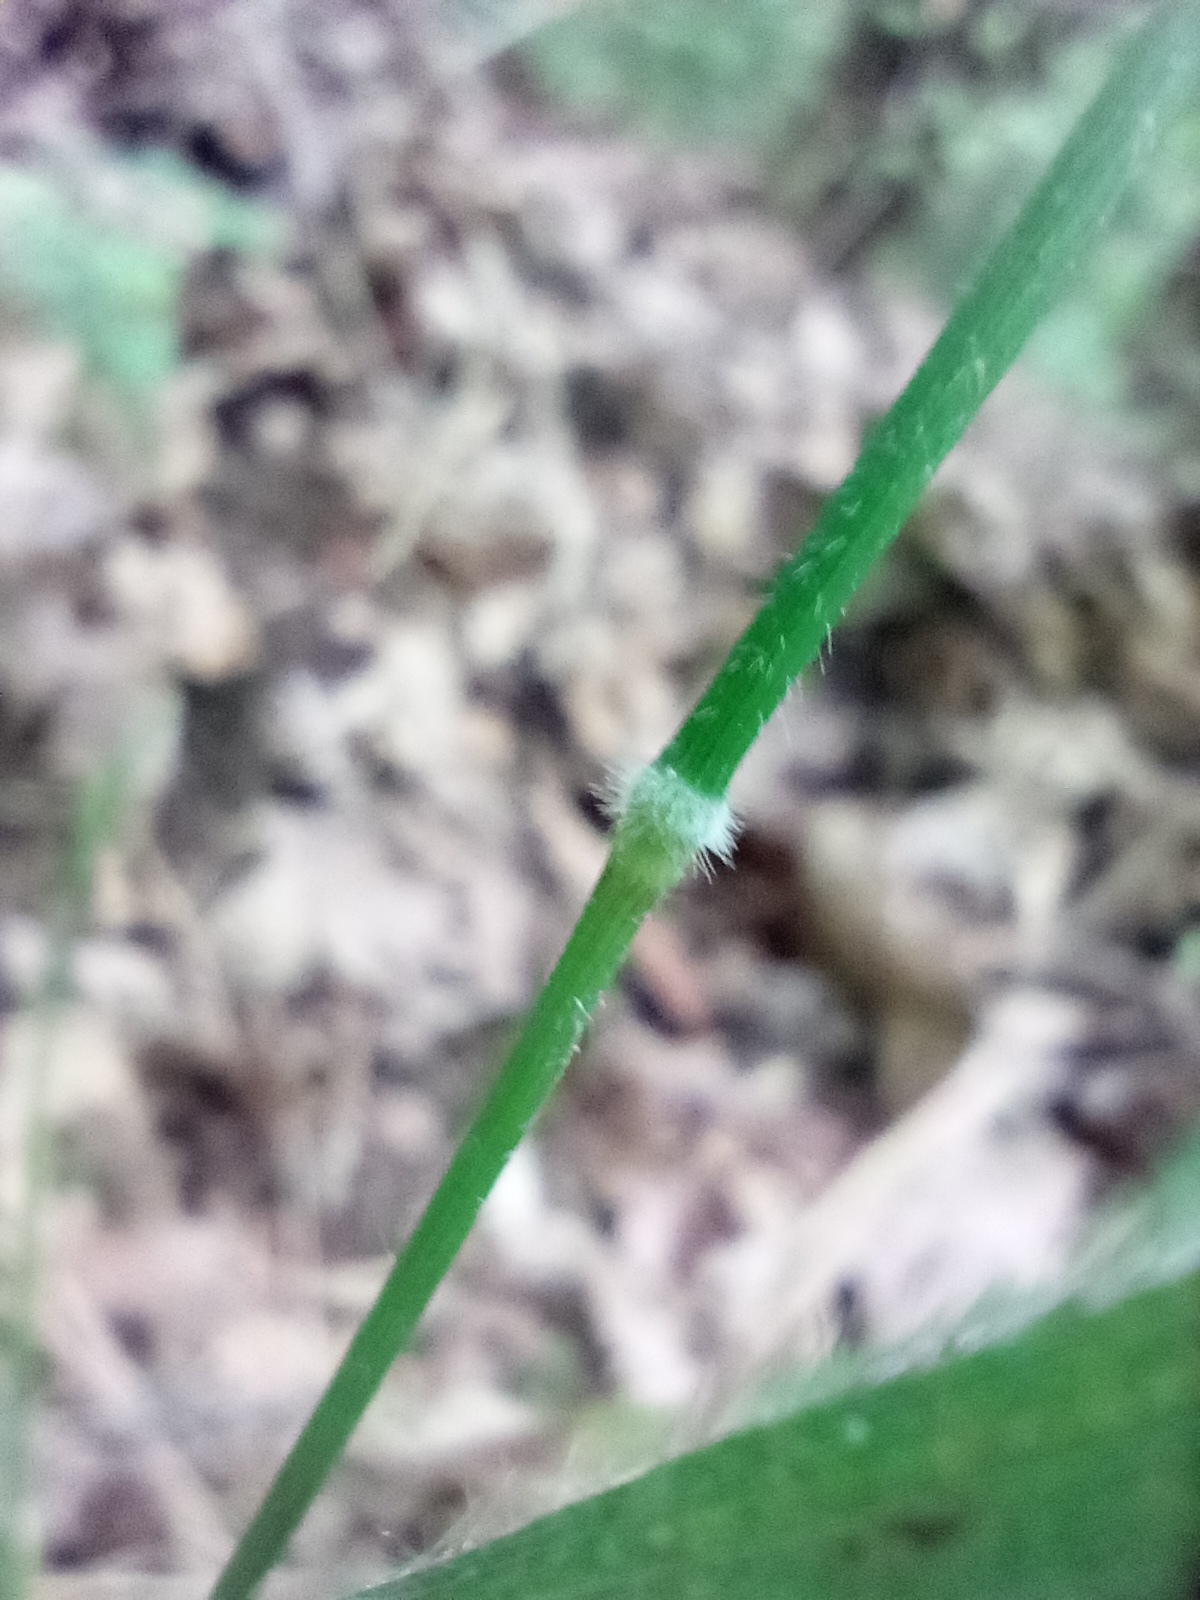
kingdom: Plantae
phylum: Tracheophyta
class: Liliopsida
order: Poales
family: Poaceae
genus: Brachypodium
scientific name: Brachypodium sylvaticum
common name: False-brome
